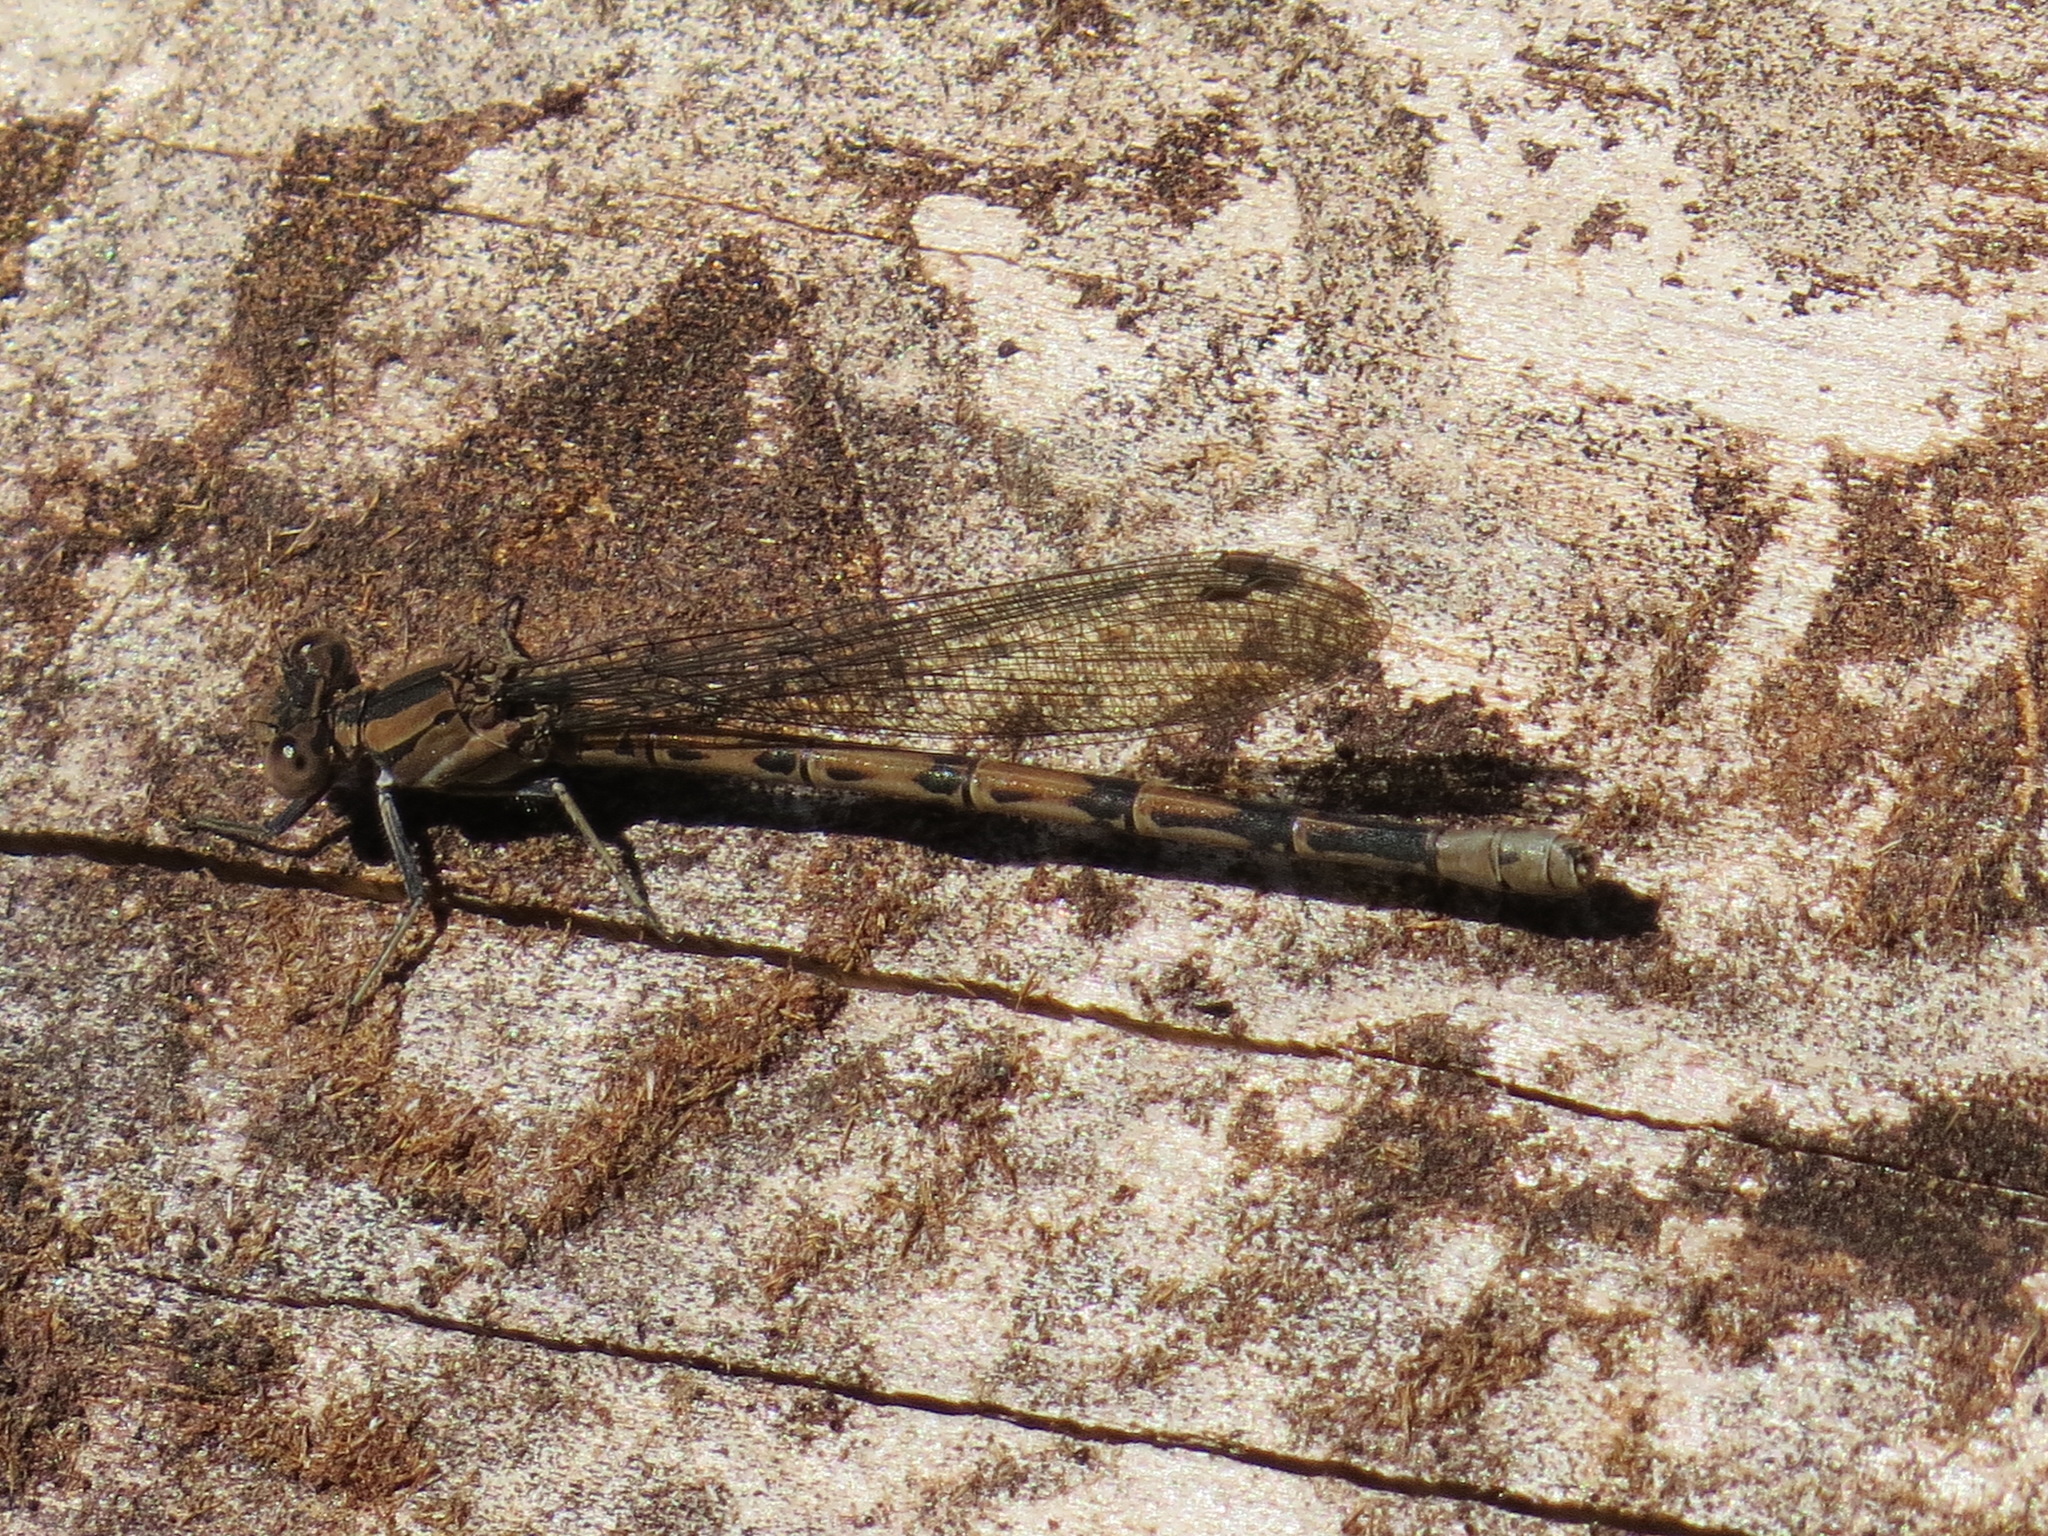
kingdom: Animalia
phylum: Arthropoda
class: Insecta
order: Odonata
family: Coenagrionidae
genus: Argia
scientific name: Argia vivida
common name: Vivid dancer
